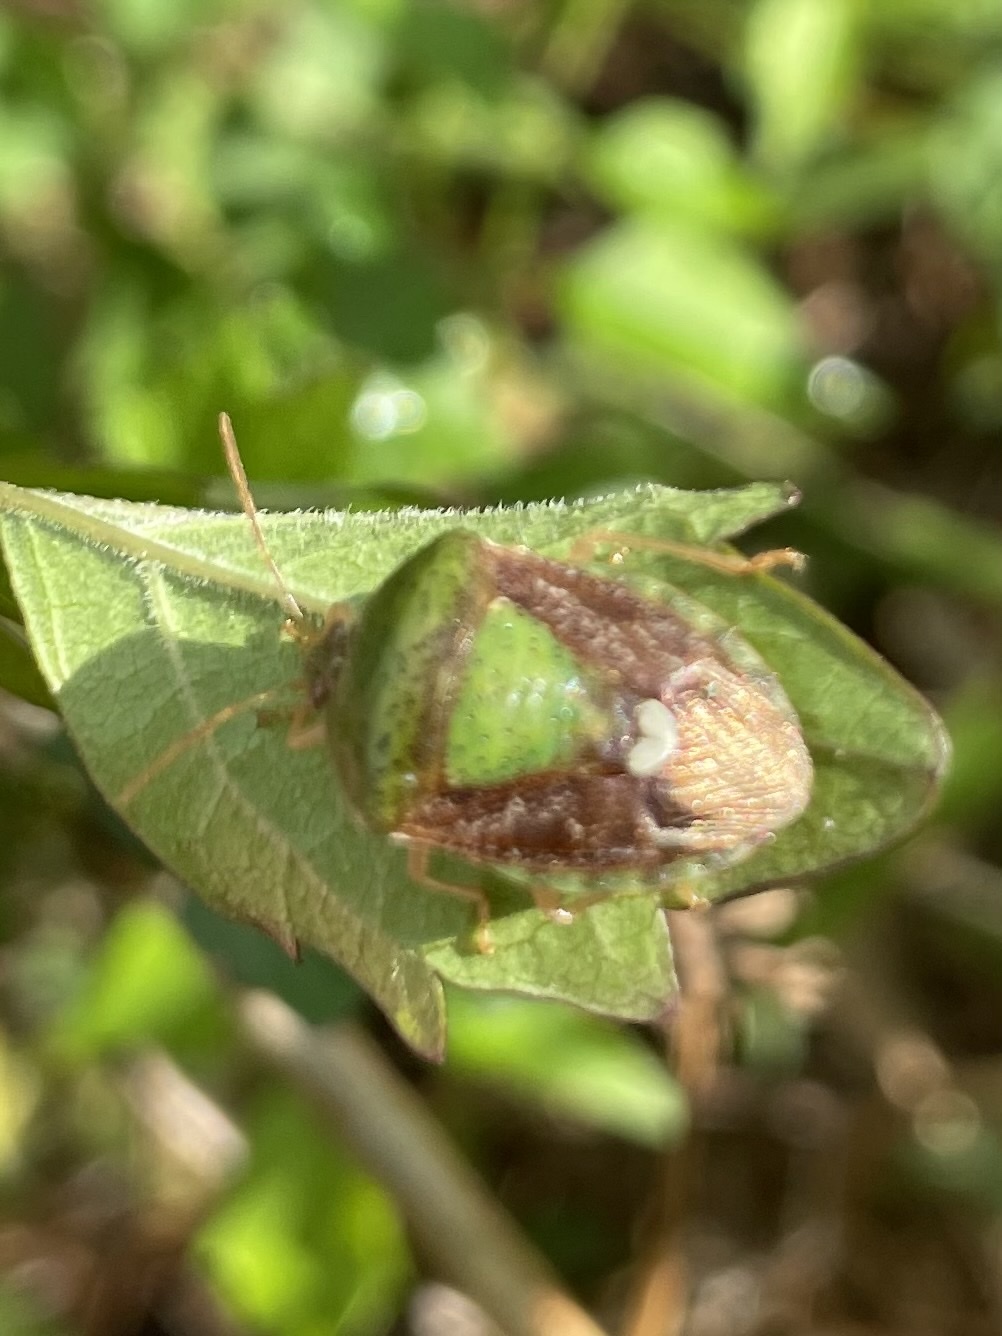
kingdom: Animalia
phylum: Arthropoda
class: Insecta
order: Hemiptera
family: Pentatomidae
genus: Edessa
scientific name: Edessa bifida
